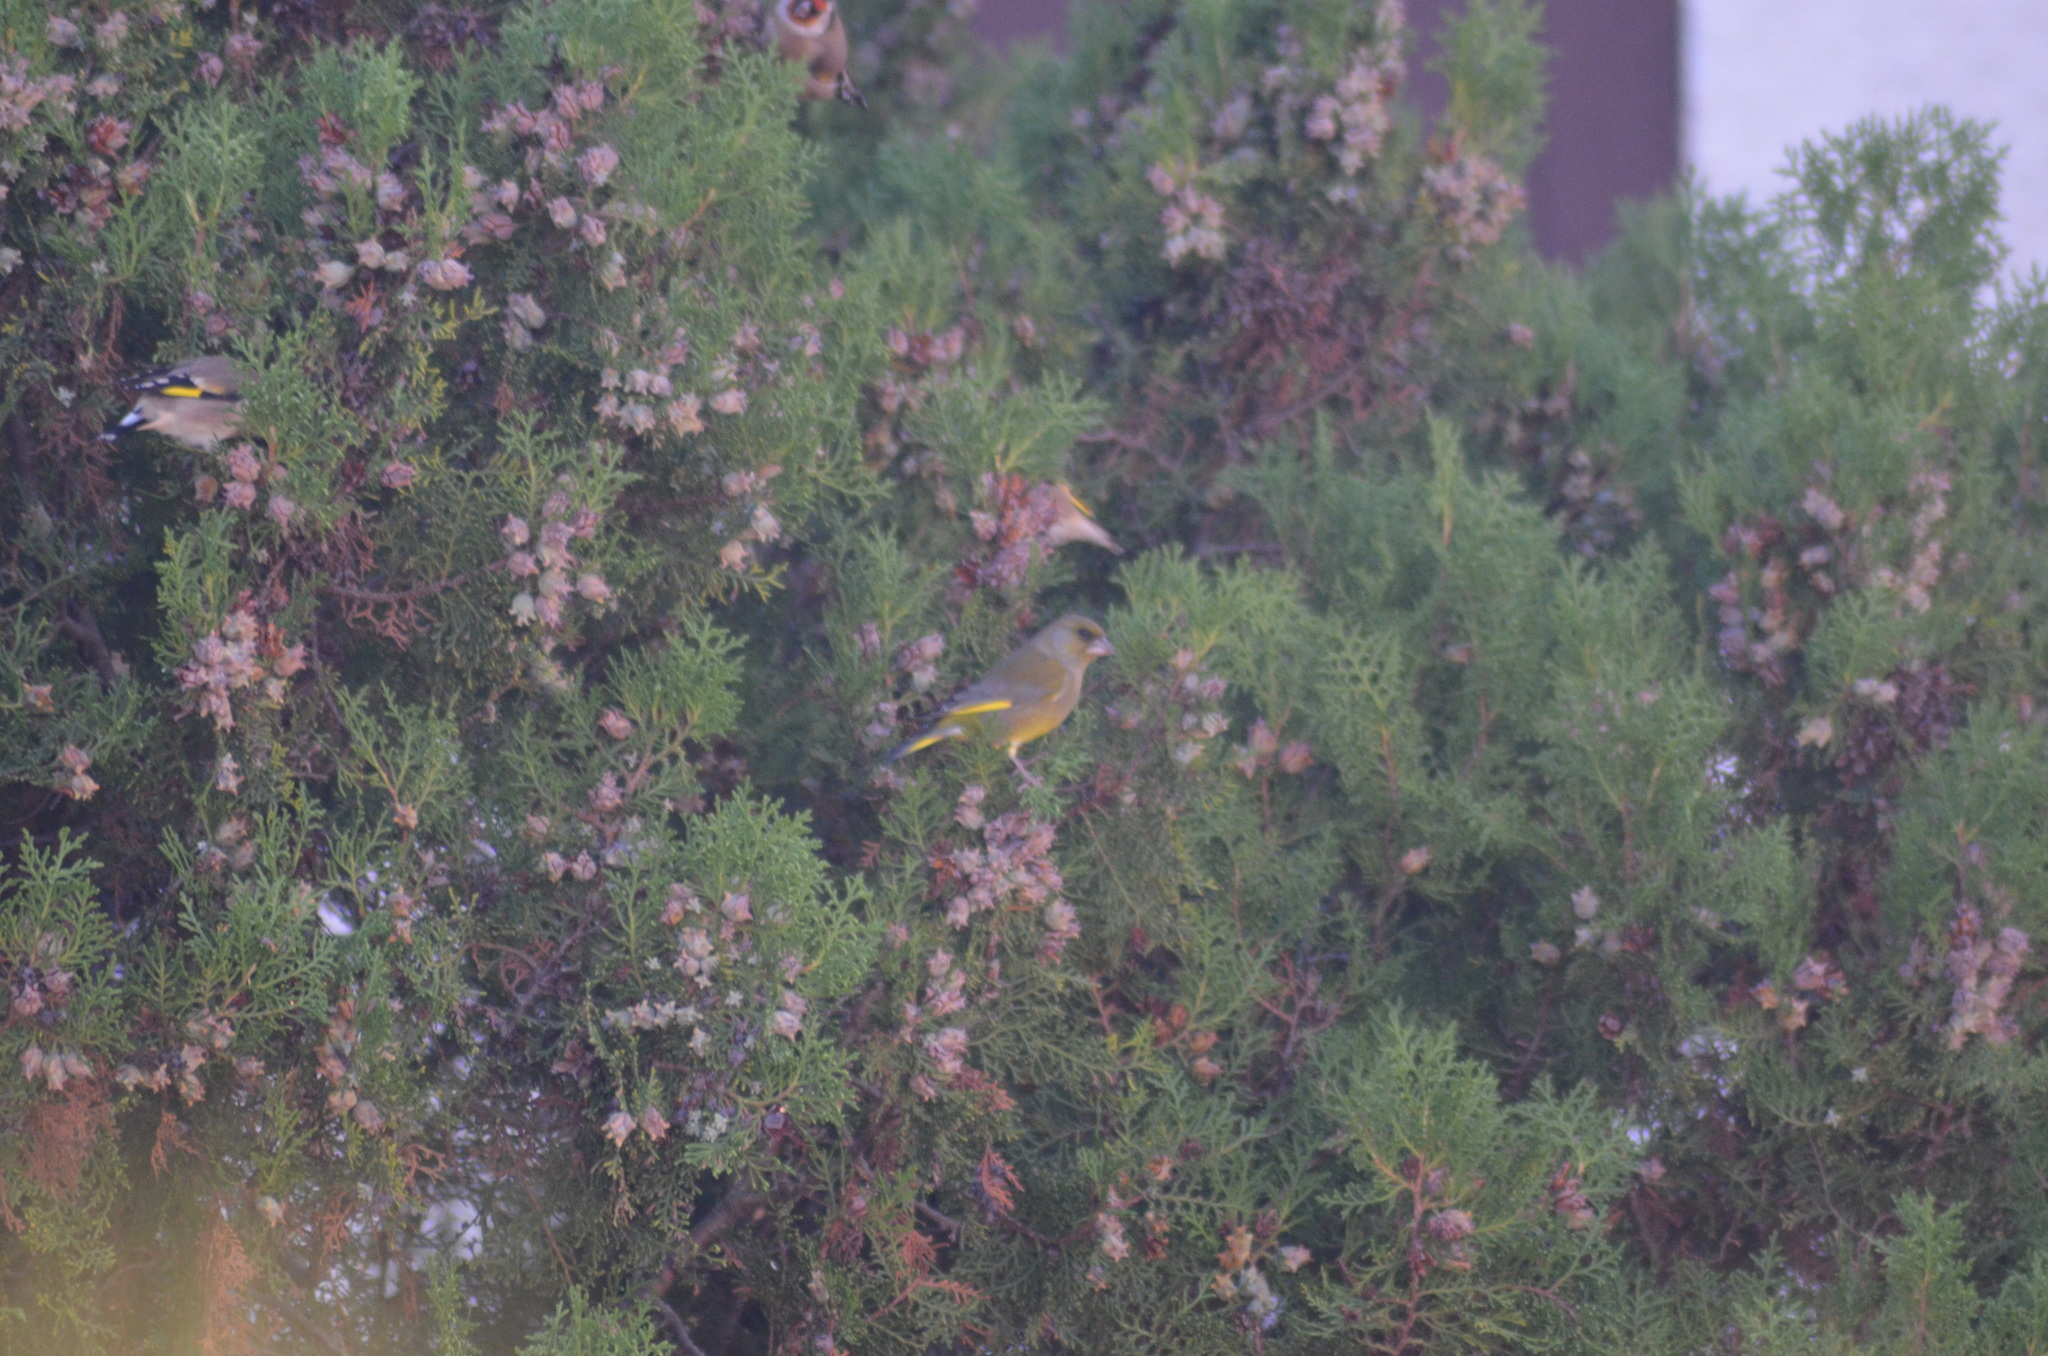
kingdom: Plantae
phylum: Tracheophyta
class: Liliopsida
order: Poales
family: Poaceae
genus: Chloris
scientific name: Chloris chloris
